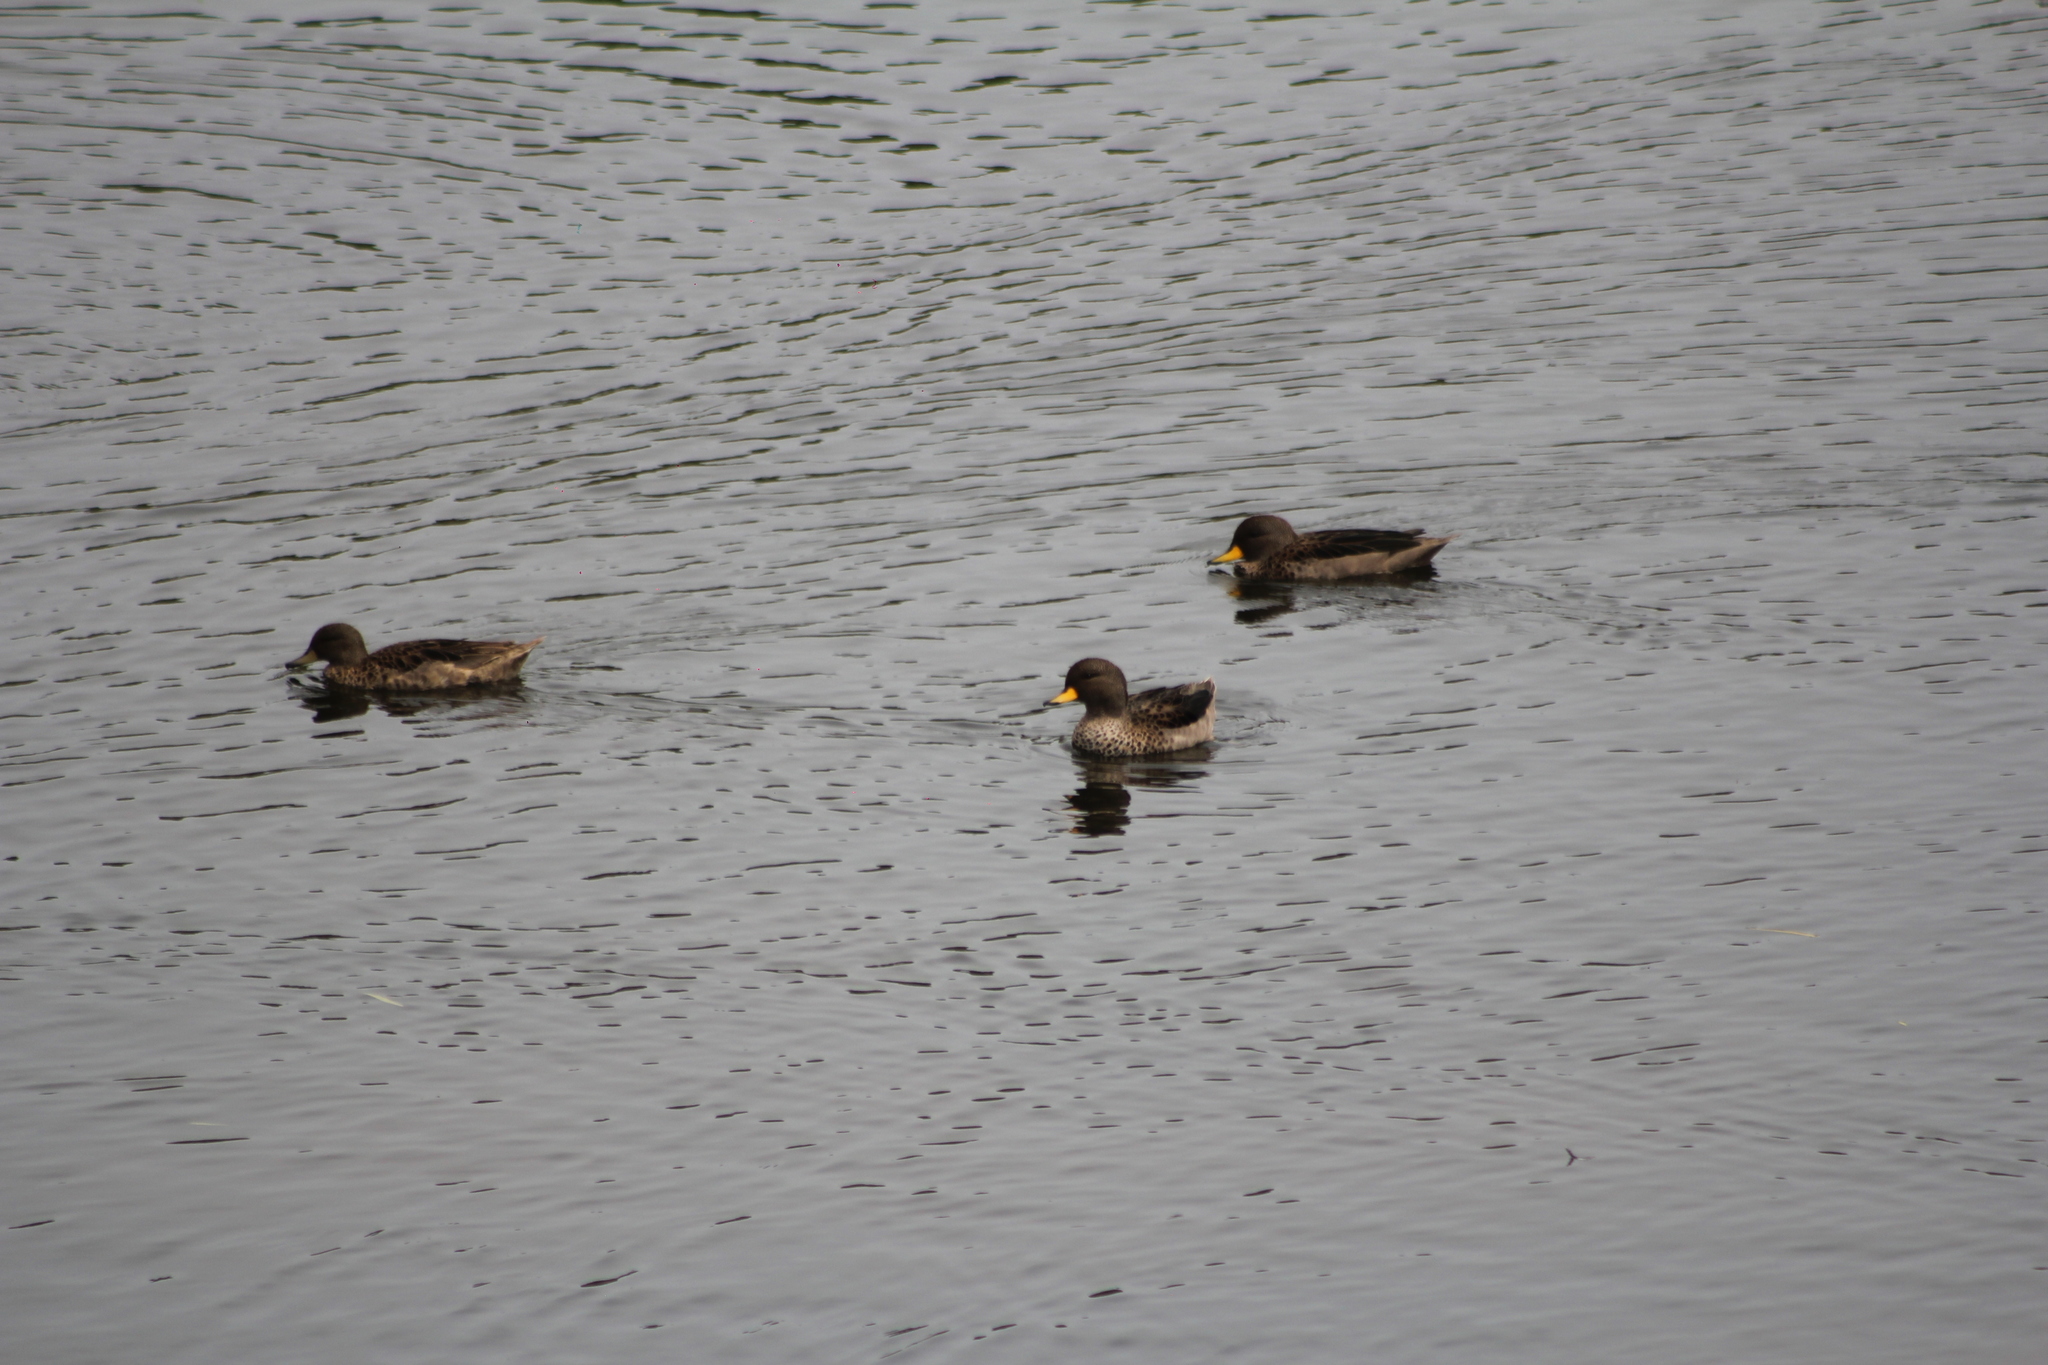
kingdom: Animalia
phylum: Chordata
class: Aves
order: Anseriformes
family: Anatidae
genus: Anas
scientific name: Anas flavirostris
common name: Yellow-billed teal
